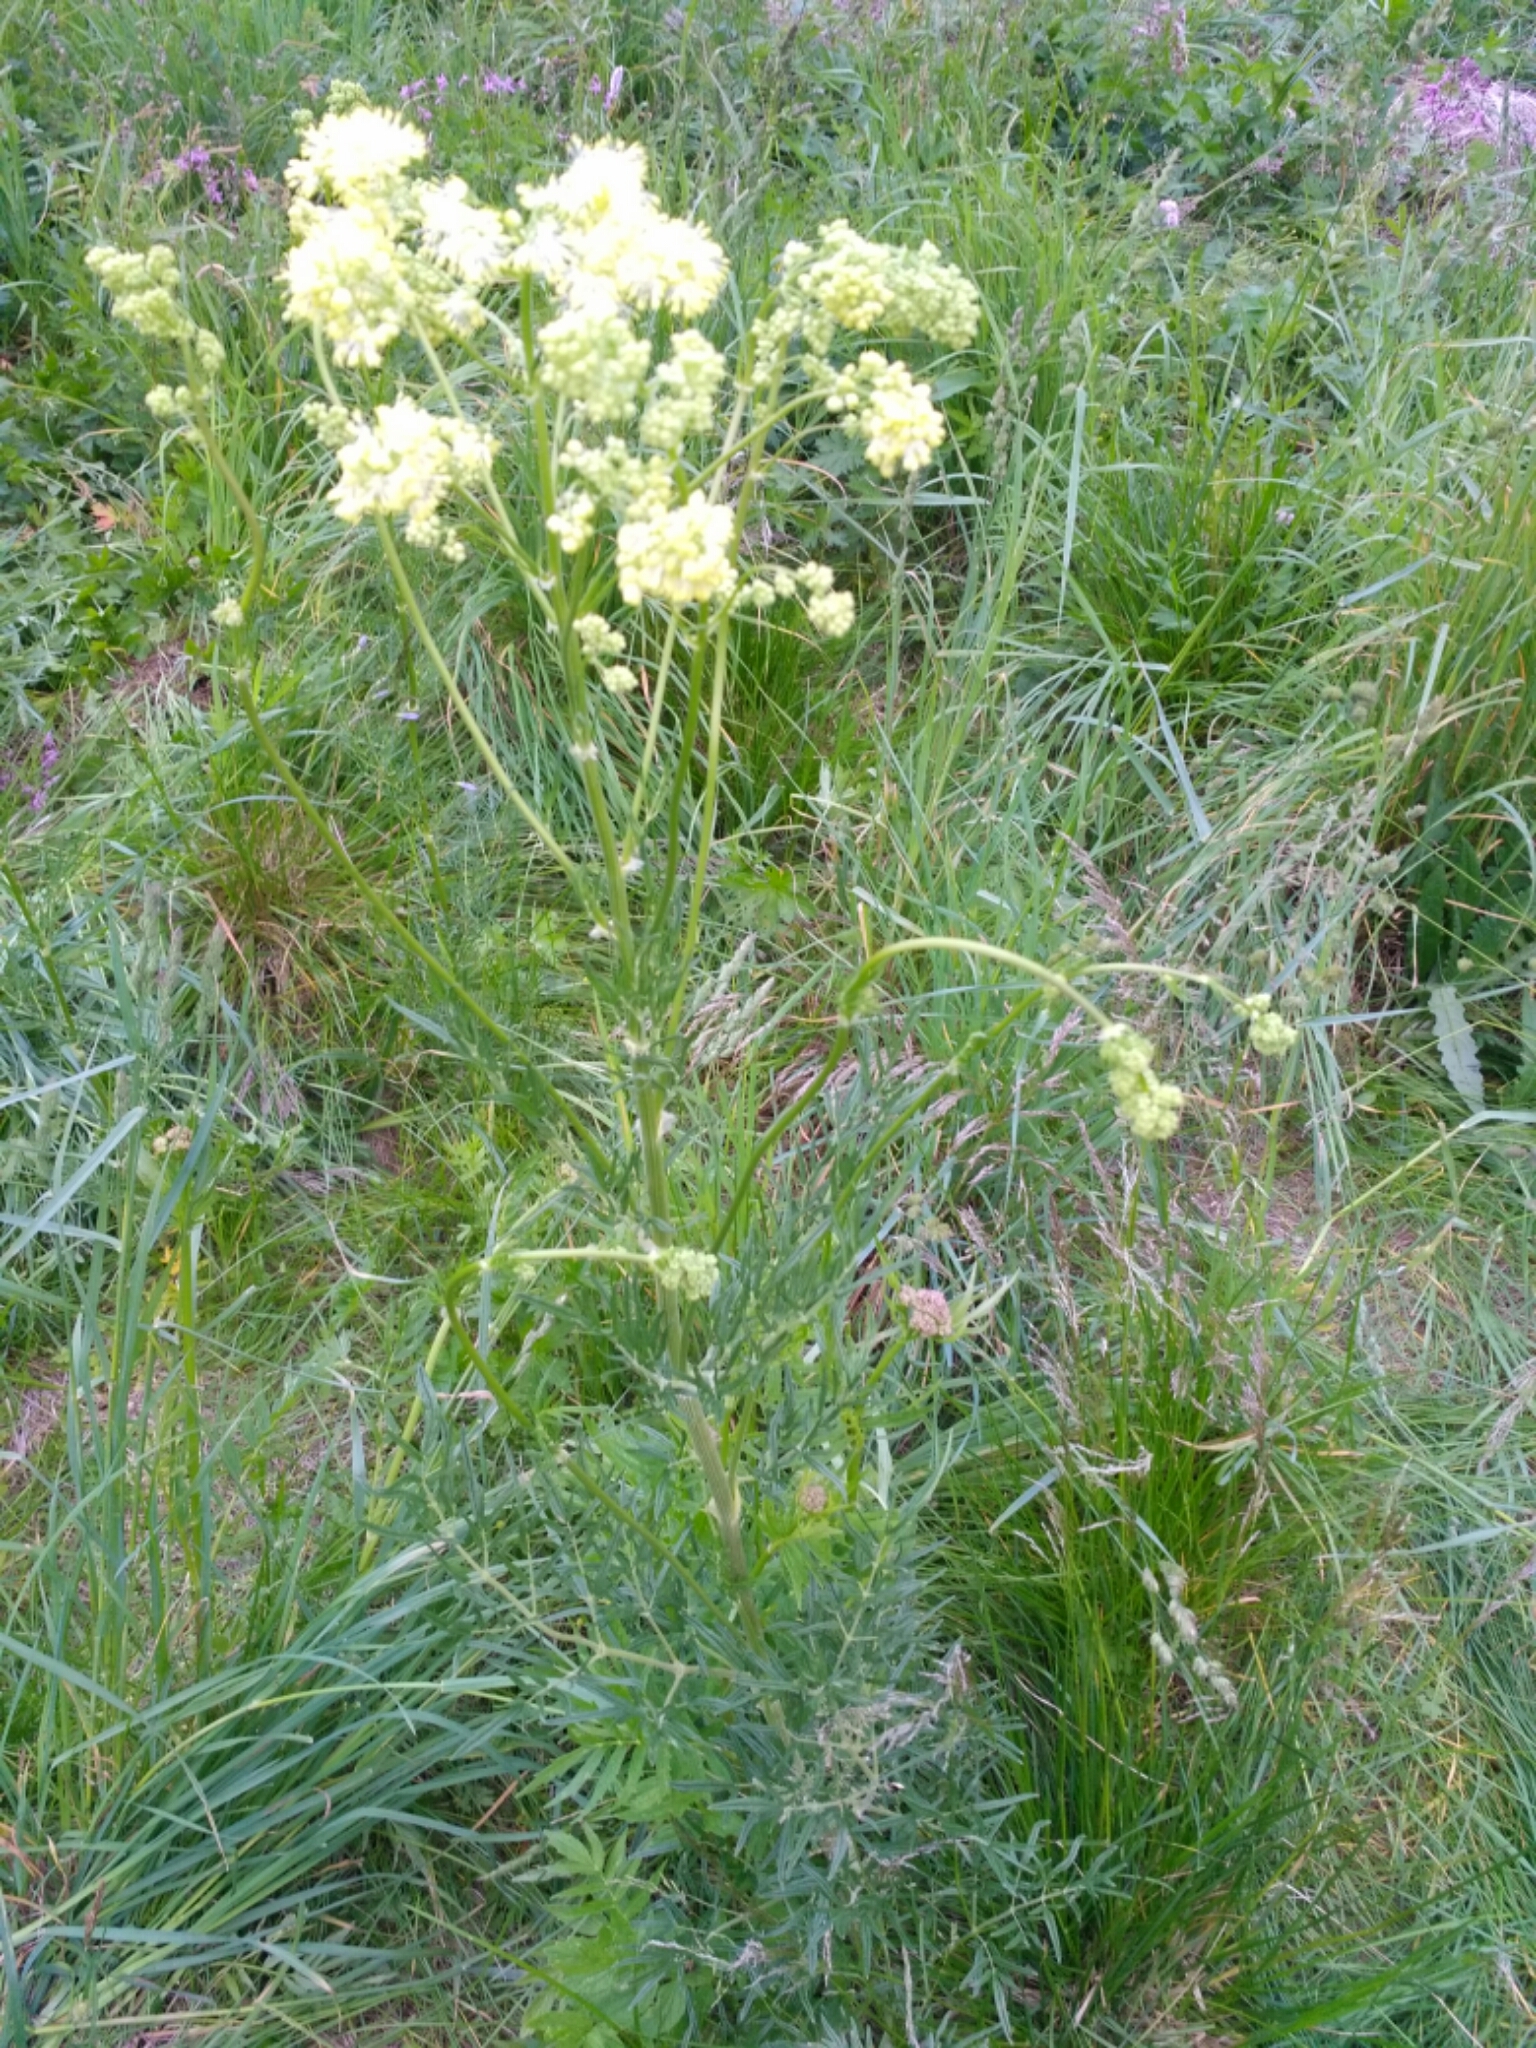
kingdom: Plantae
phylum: Tracheophyta
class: Magnoliopsida
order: Ranunculales
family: Ranunculaceae
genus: Thalictrum
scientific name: Thalictrum lucidum
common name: Shining meadow-rue
